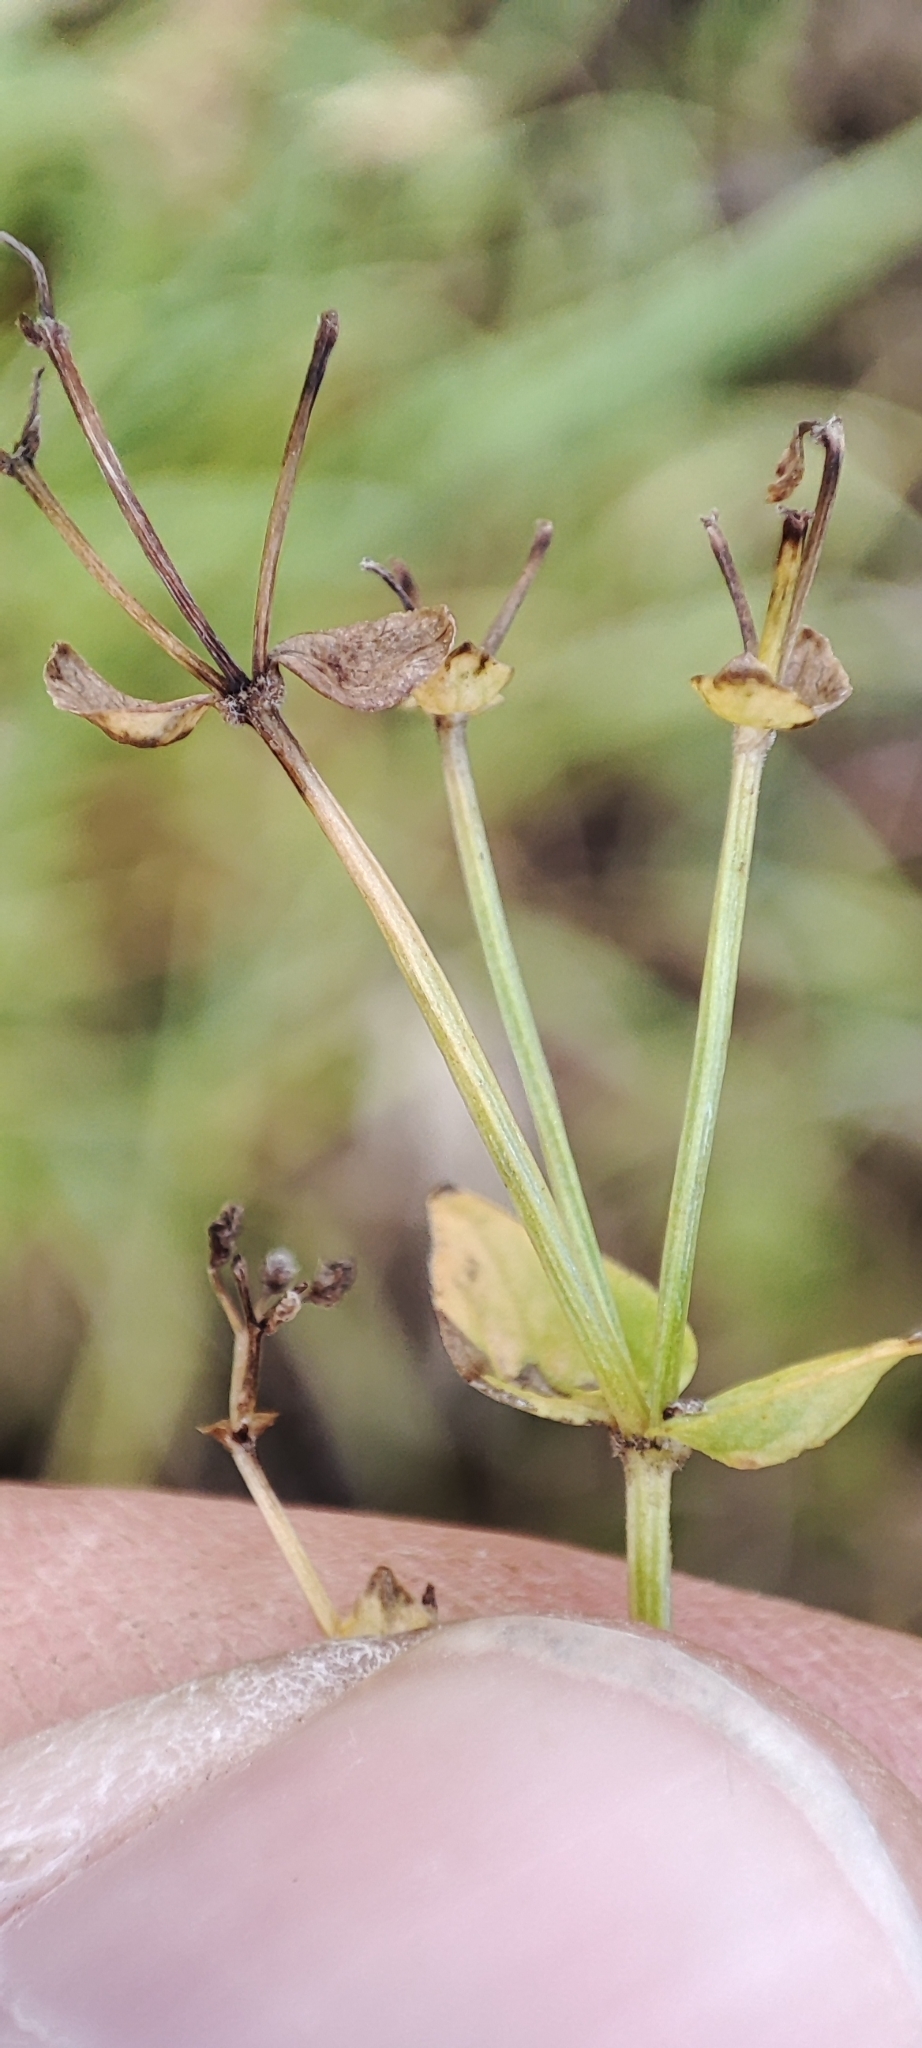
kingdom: Plantae
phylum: Tracheophyta
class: Magnoliopsida
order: Gentianales
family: Rubiaceae
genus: Galium
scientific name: Galium boreale
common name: Northern bedstraw
